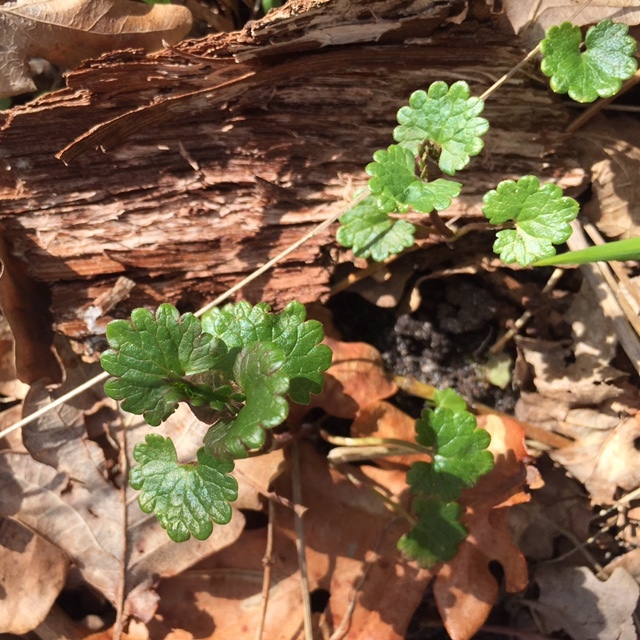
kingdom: Plantae
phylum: Tracheophyta
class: Magnoliopsida
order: Lamiales
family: Lamiaceae
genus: Glechoma
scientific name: Glechoma hederacea
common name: Ground ivy
